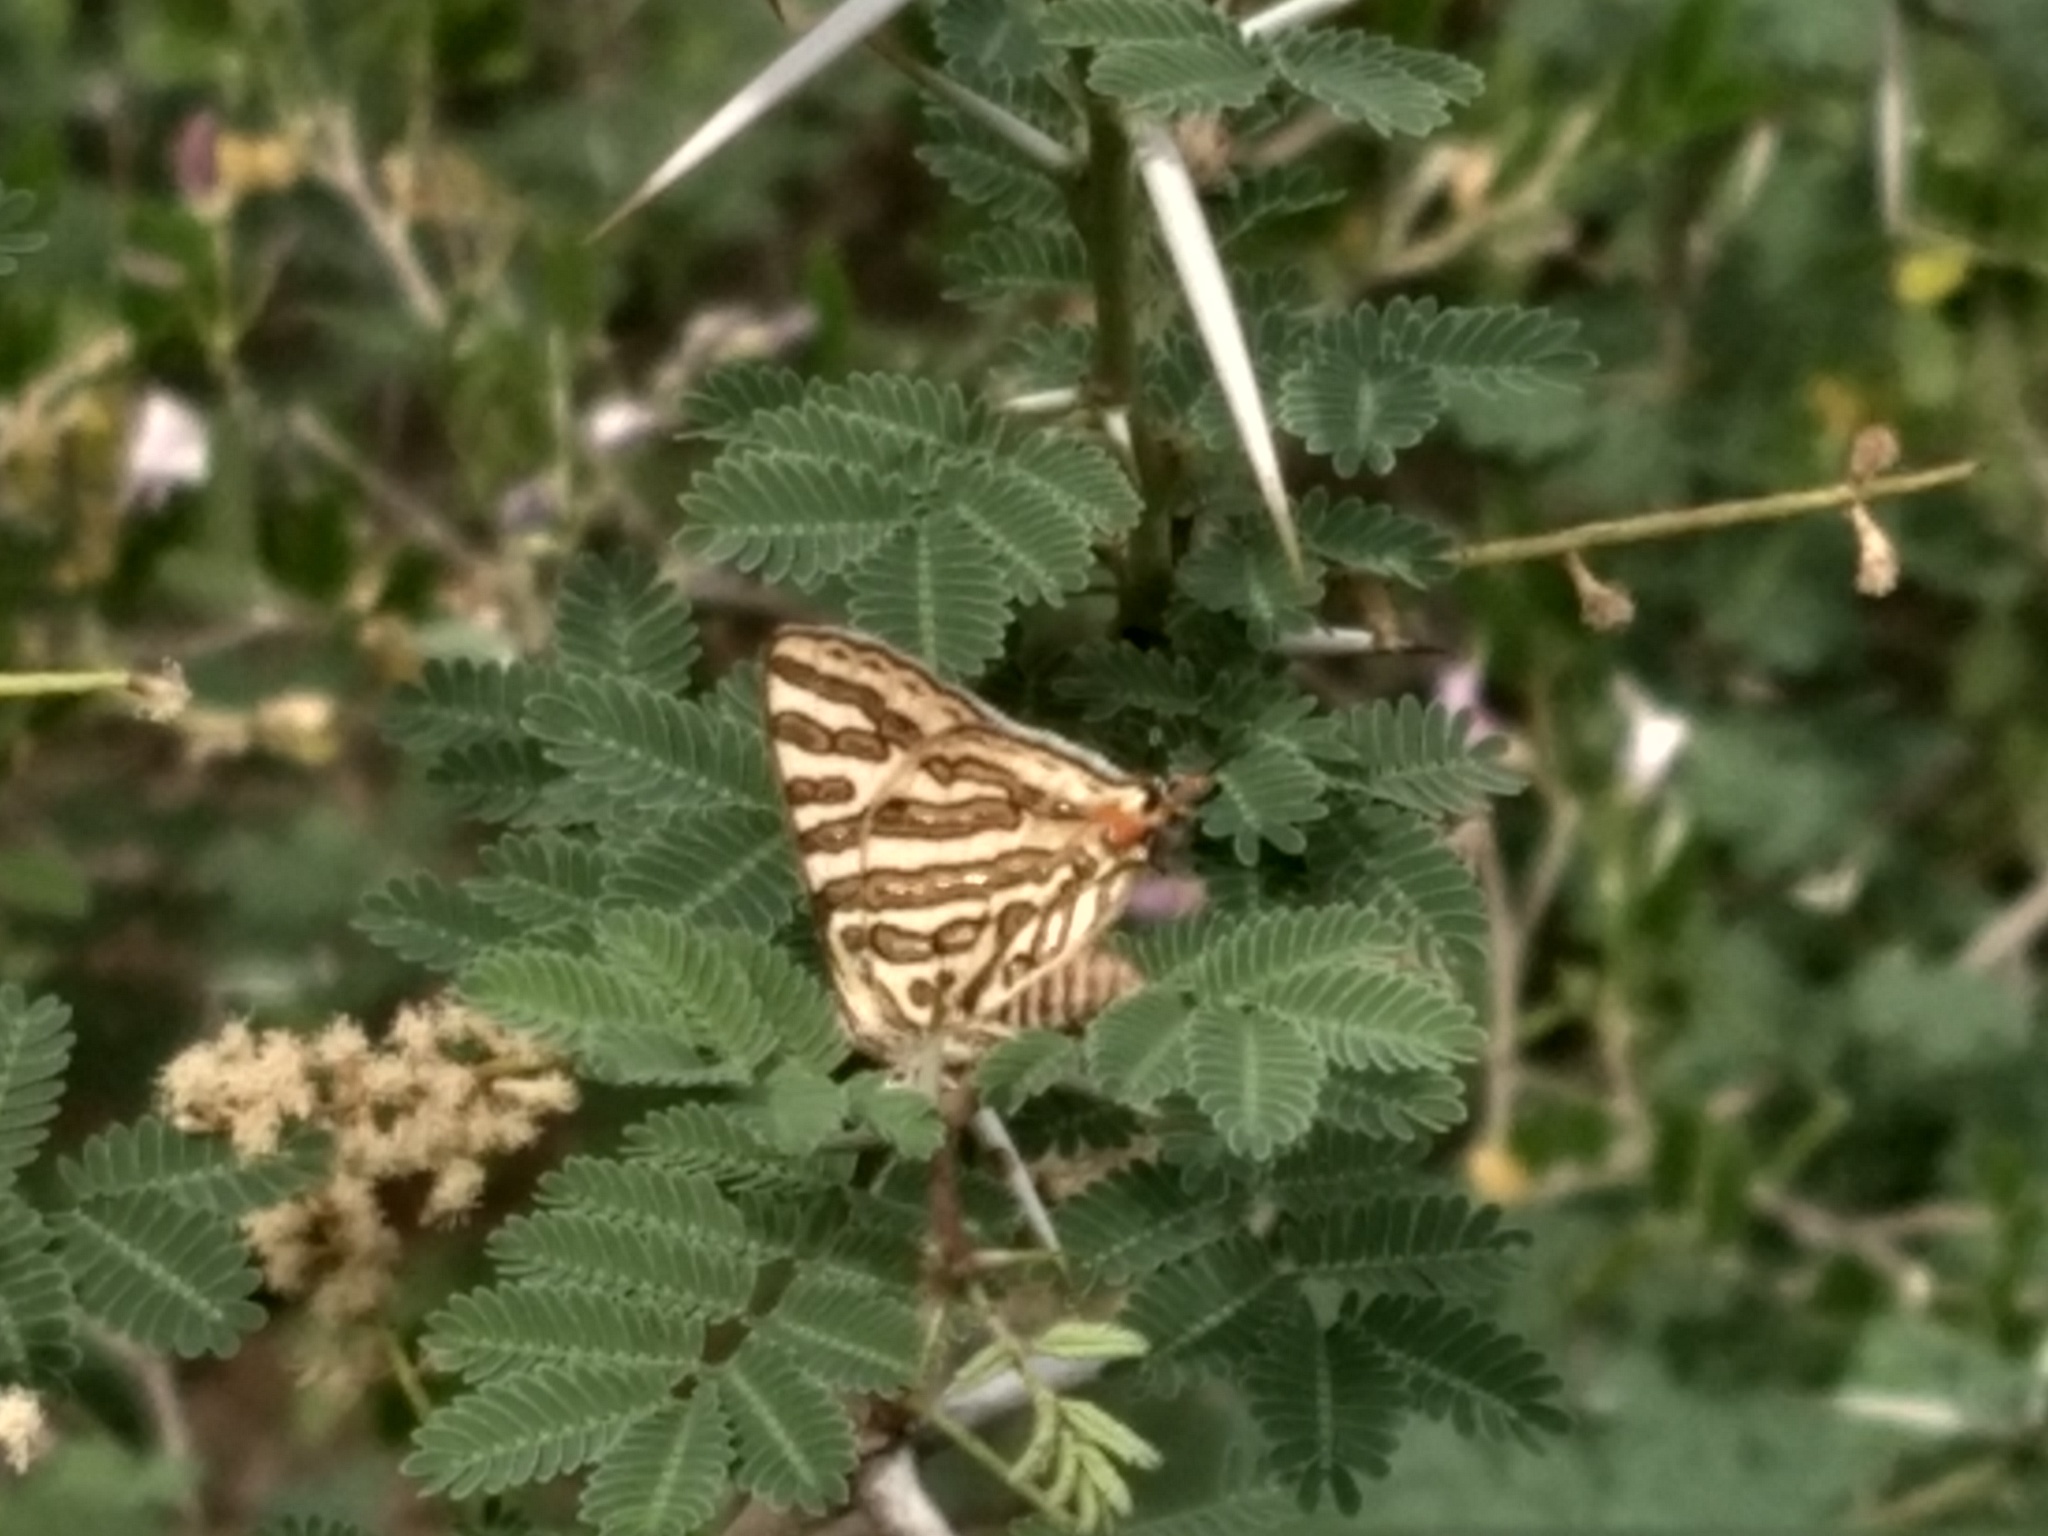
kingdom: Animalia
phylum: Arthropoda
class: Insecta
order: Lepidoptera
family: Lycaenidae
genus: Cigaritis
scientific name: Cigaritis
